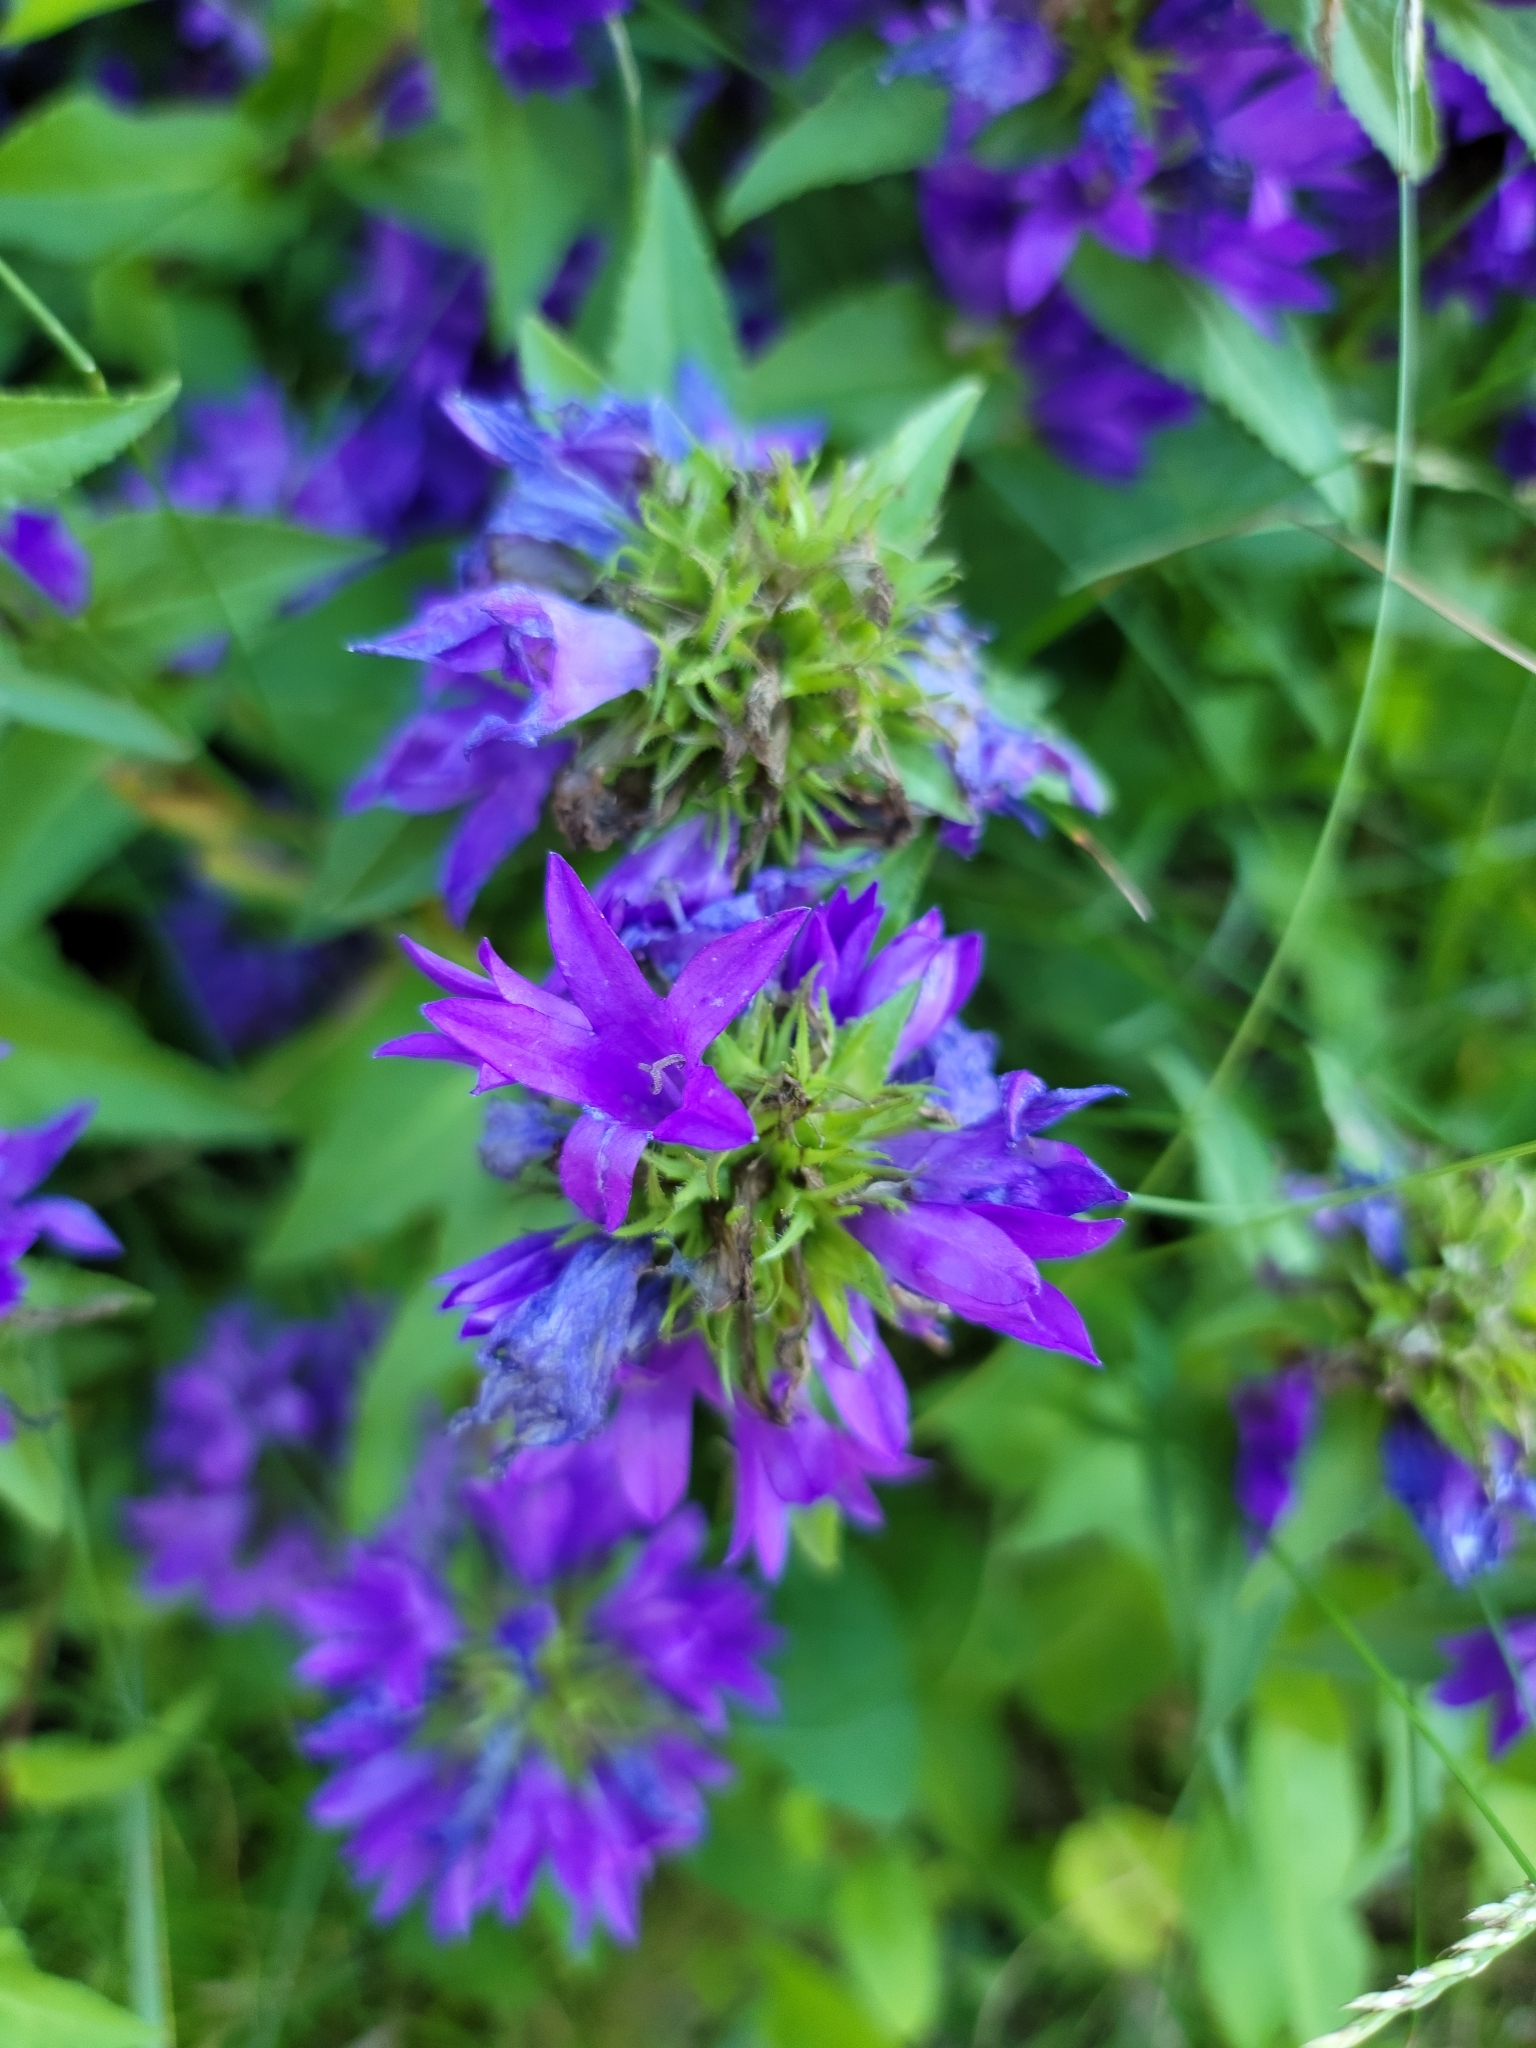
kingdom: Plantae
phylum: Tracheophyta
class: Magnoliopsida
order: Asterales
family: Campanulaceae
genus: Campanula
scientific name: Campanula glomerata
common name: Clustered bellflower
